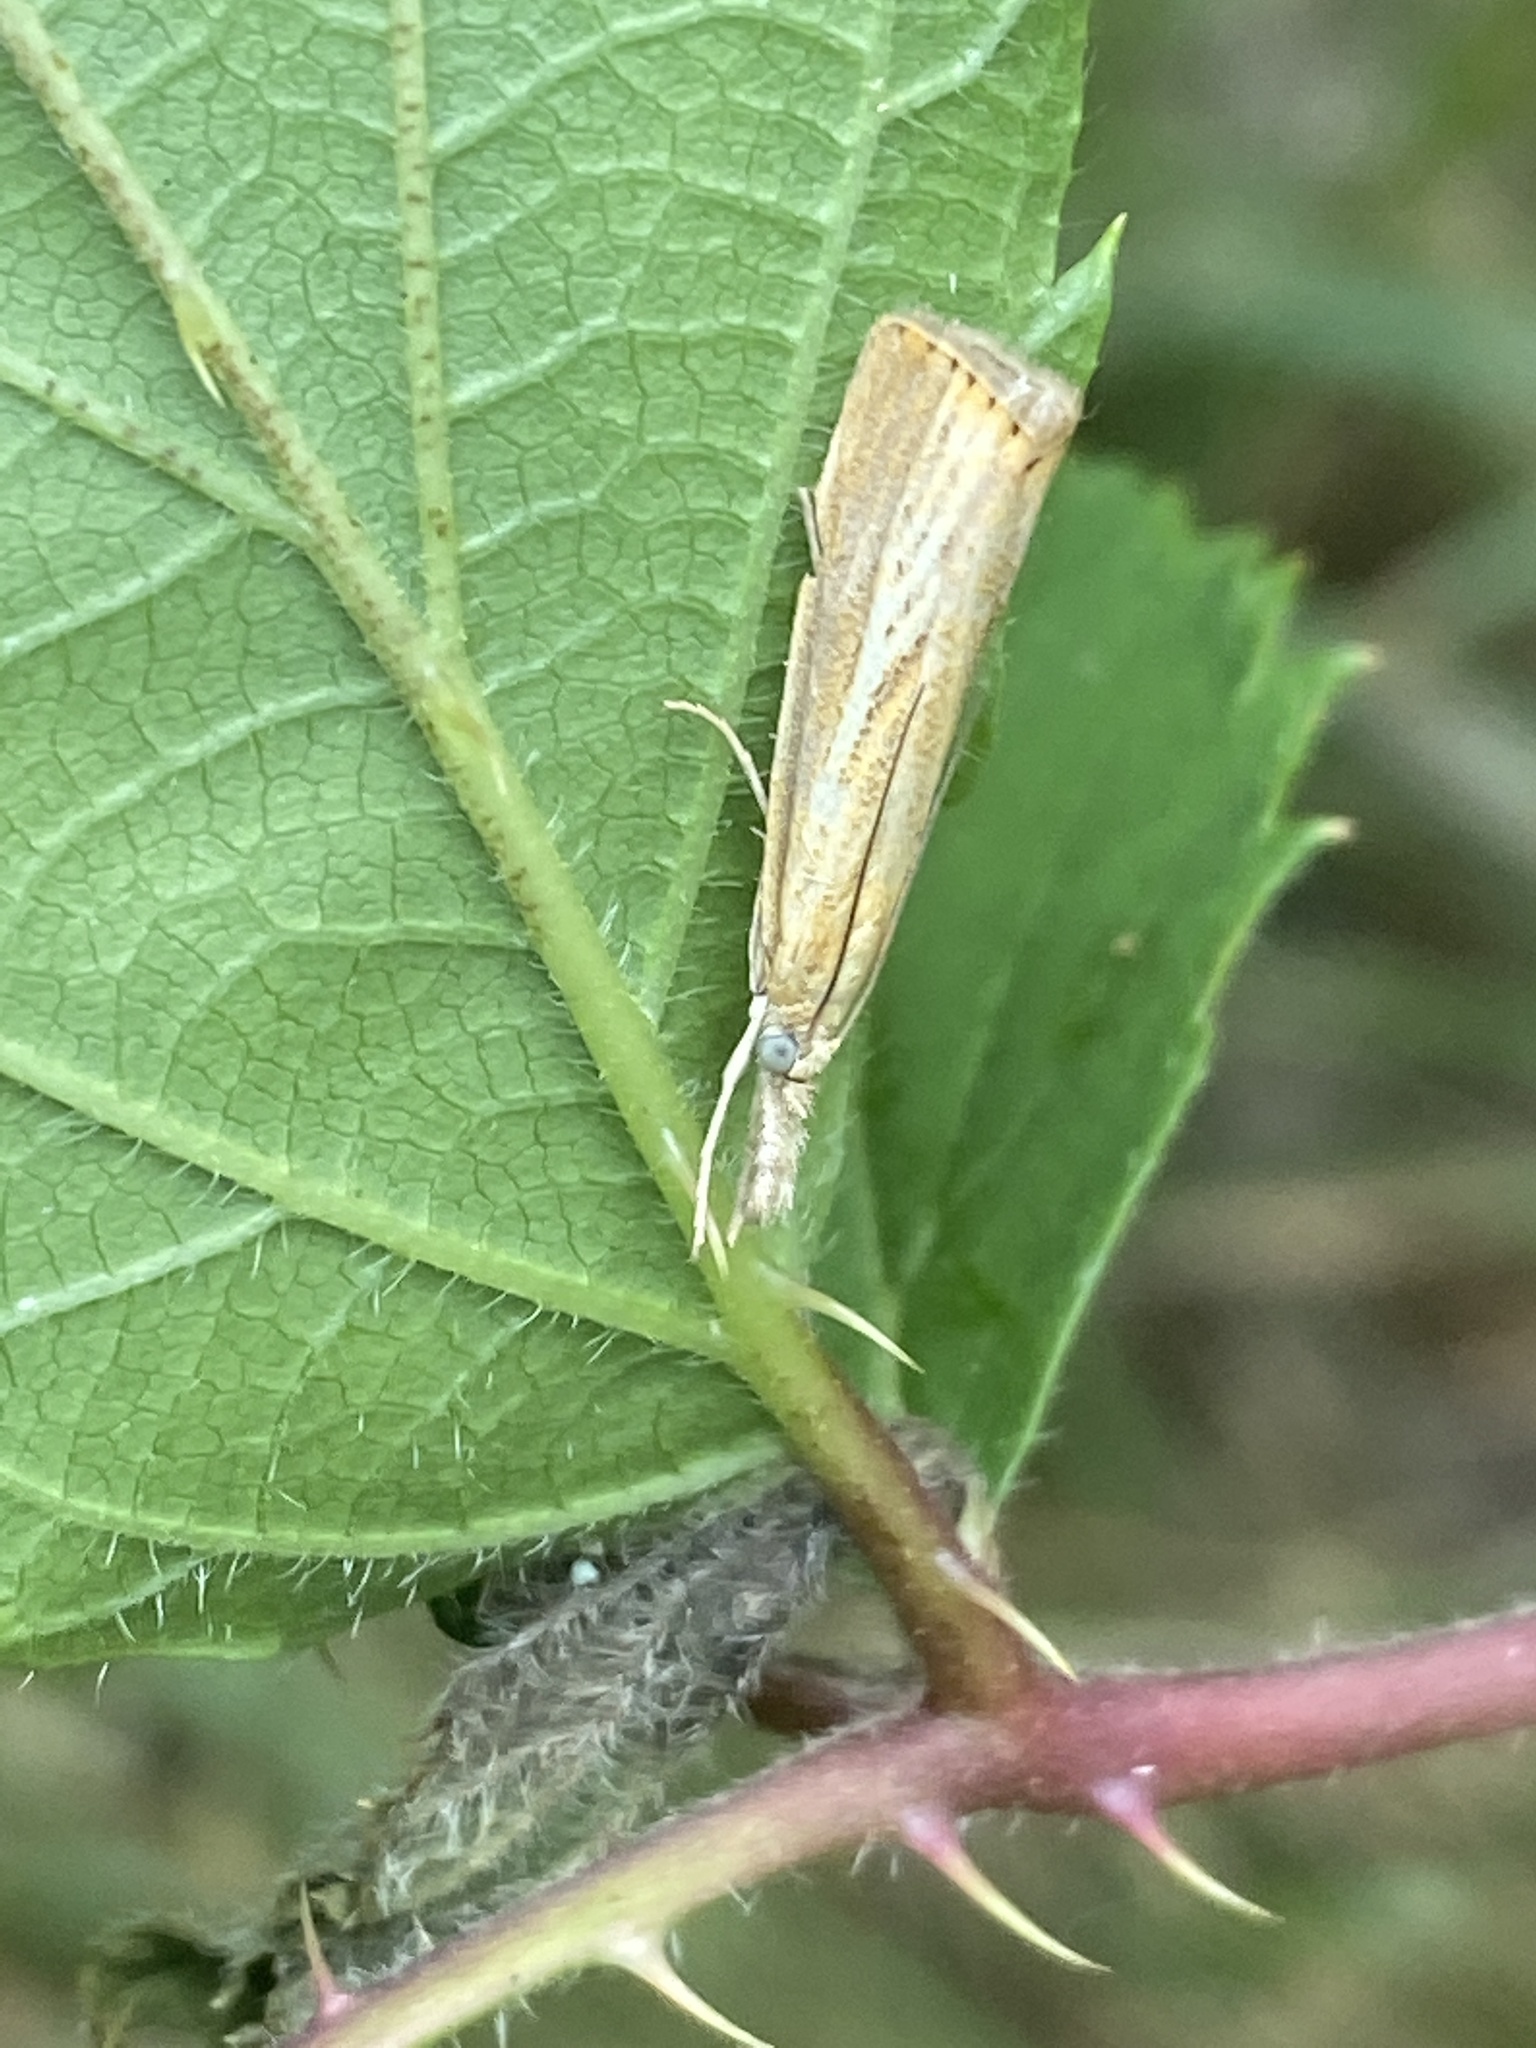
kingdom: Animalia
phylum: Arthropoda
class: Insecta
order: Lepidoptera
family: Crambidae
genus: Agriphila
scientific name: Agriphila straminella
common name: Straw grass-veneer
